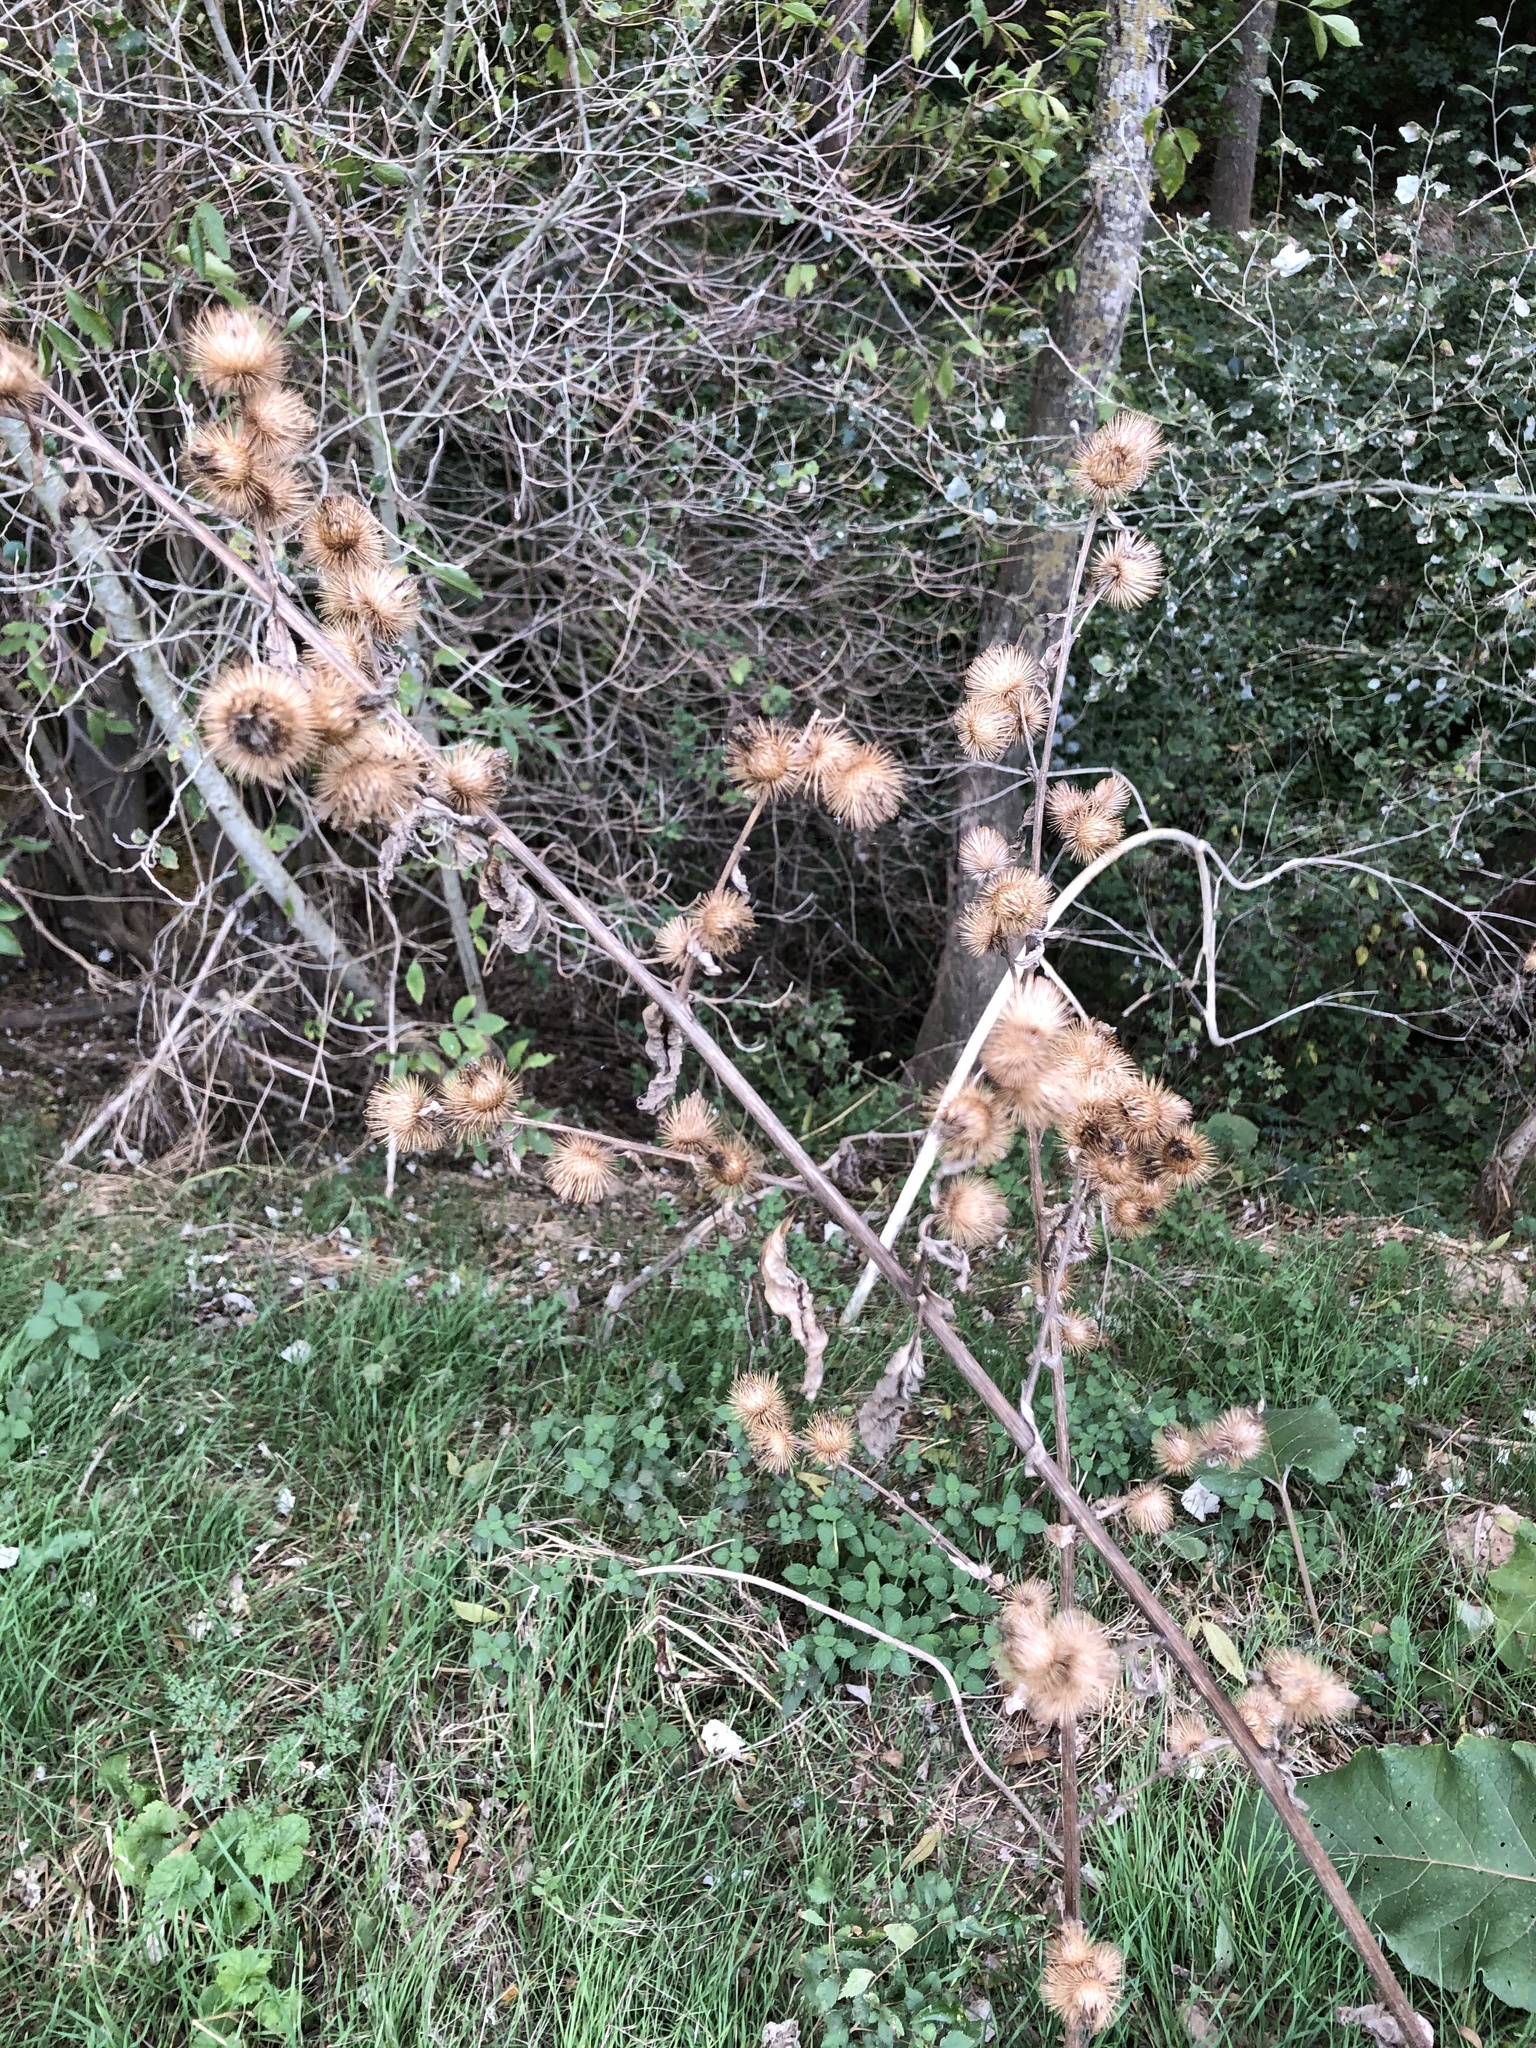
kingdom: Plantae
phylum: Tracheophyta
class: Magnoliopsida
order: Asterales
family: Asteraceae
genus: Arctium
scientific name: Arctium minus
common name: Lesser burdock
